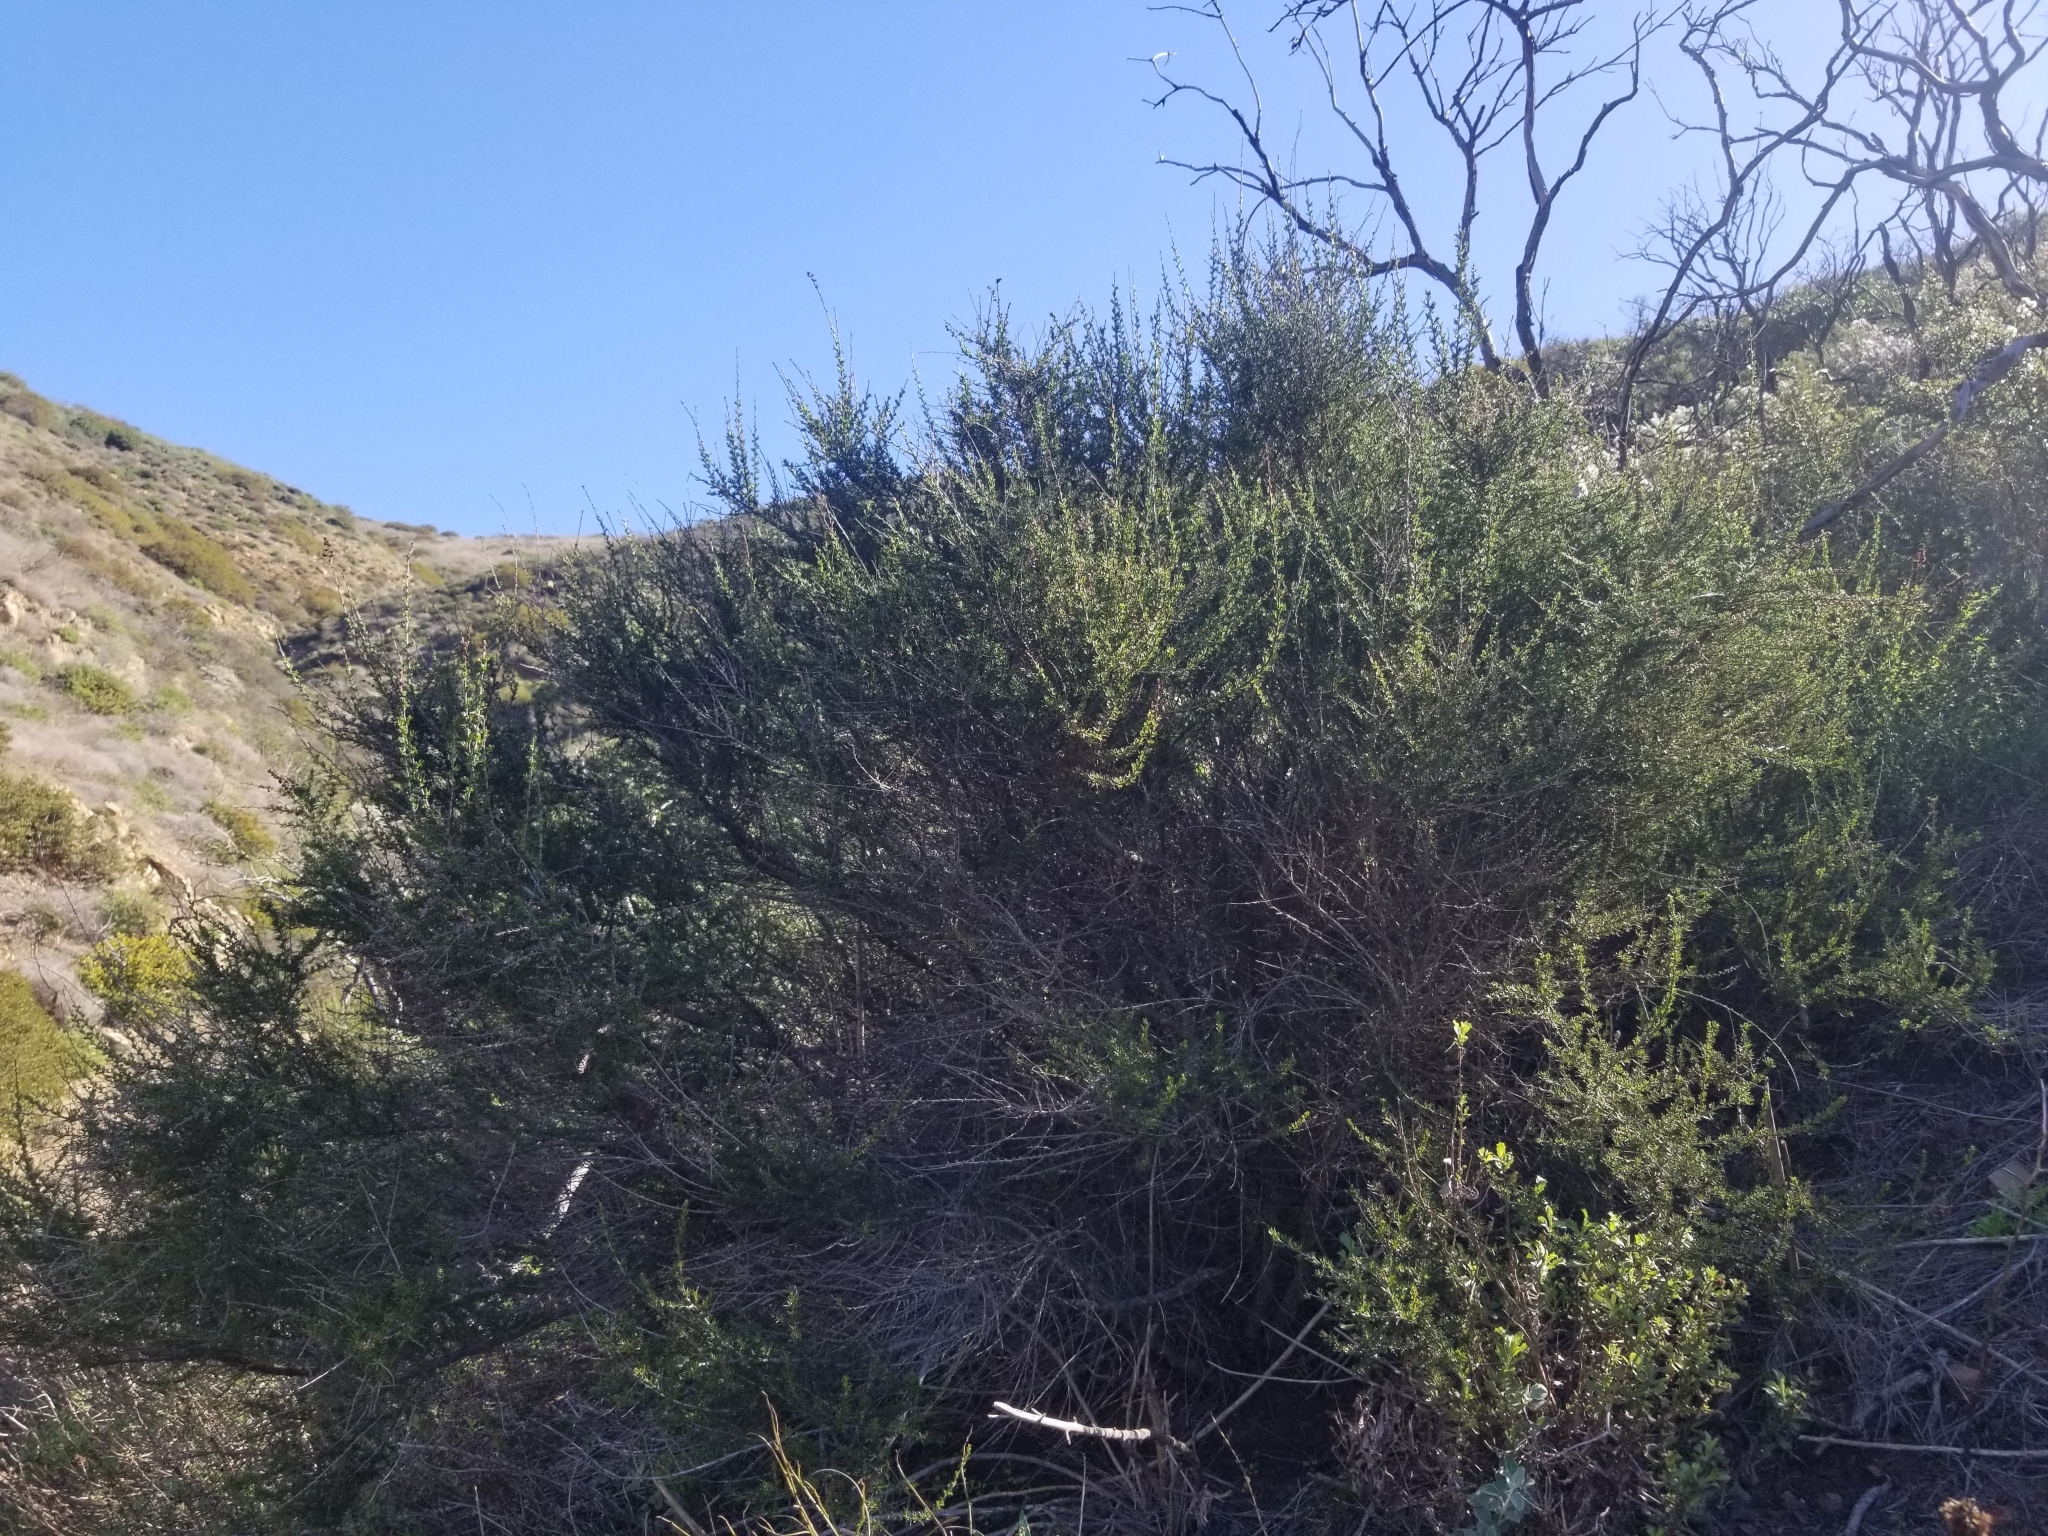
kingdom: Plantae
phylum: Tracheophyta
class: Magnoliopsida
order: Rosales
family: Rosaceae
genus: Adenostoma
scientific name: Adenostoma fasciculatum
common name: Chamise
